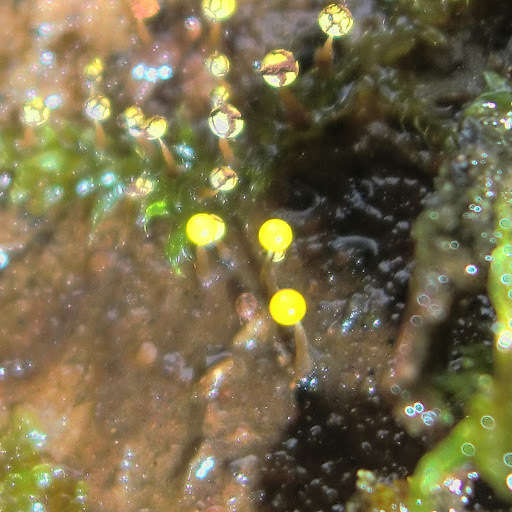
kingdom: Protozoa
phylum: Mycetozoa
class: Myxomycetes
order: Physarales
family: Physaraceae
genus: Physarum
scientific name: Physarum viride
